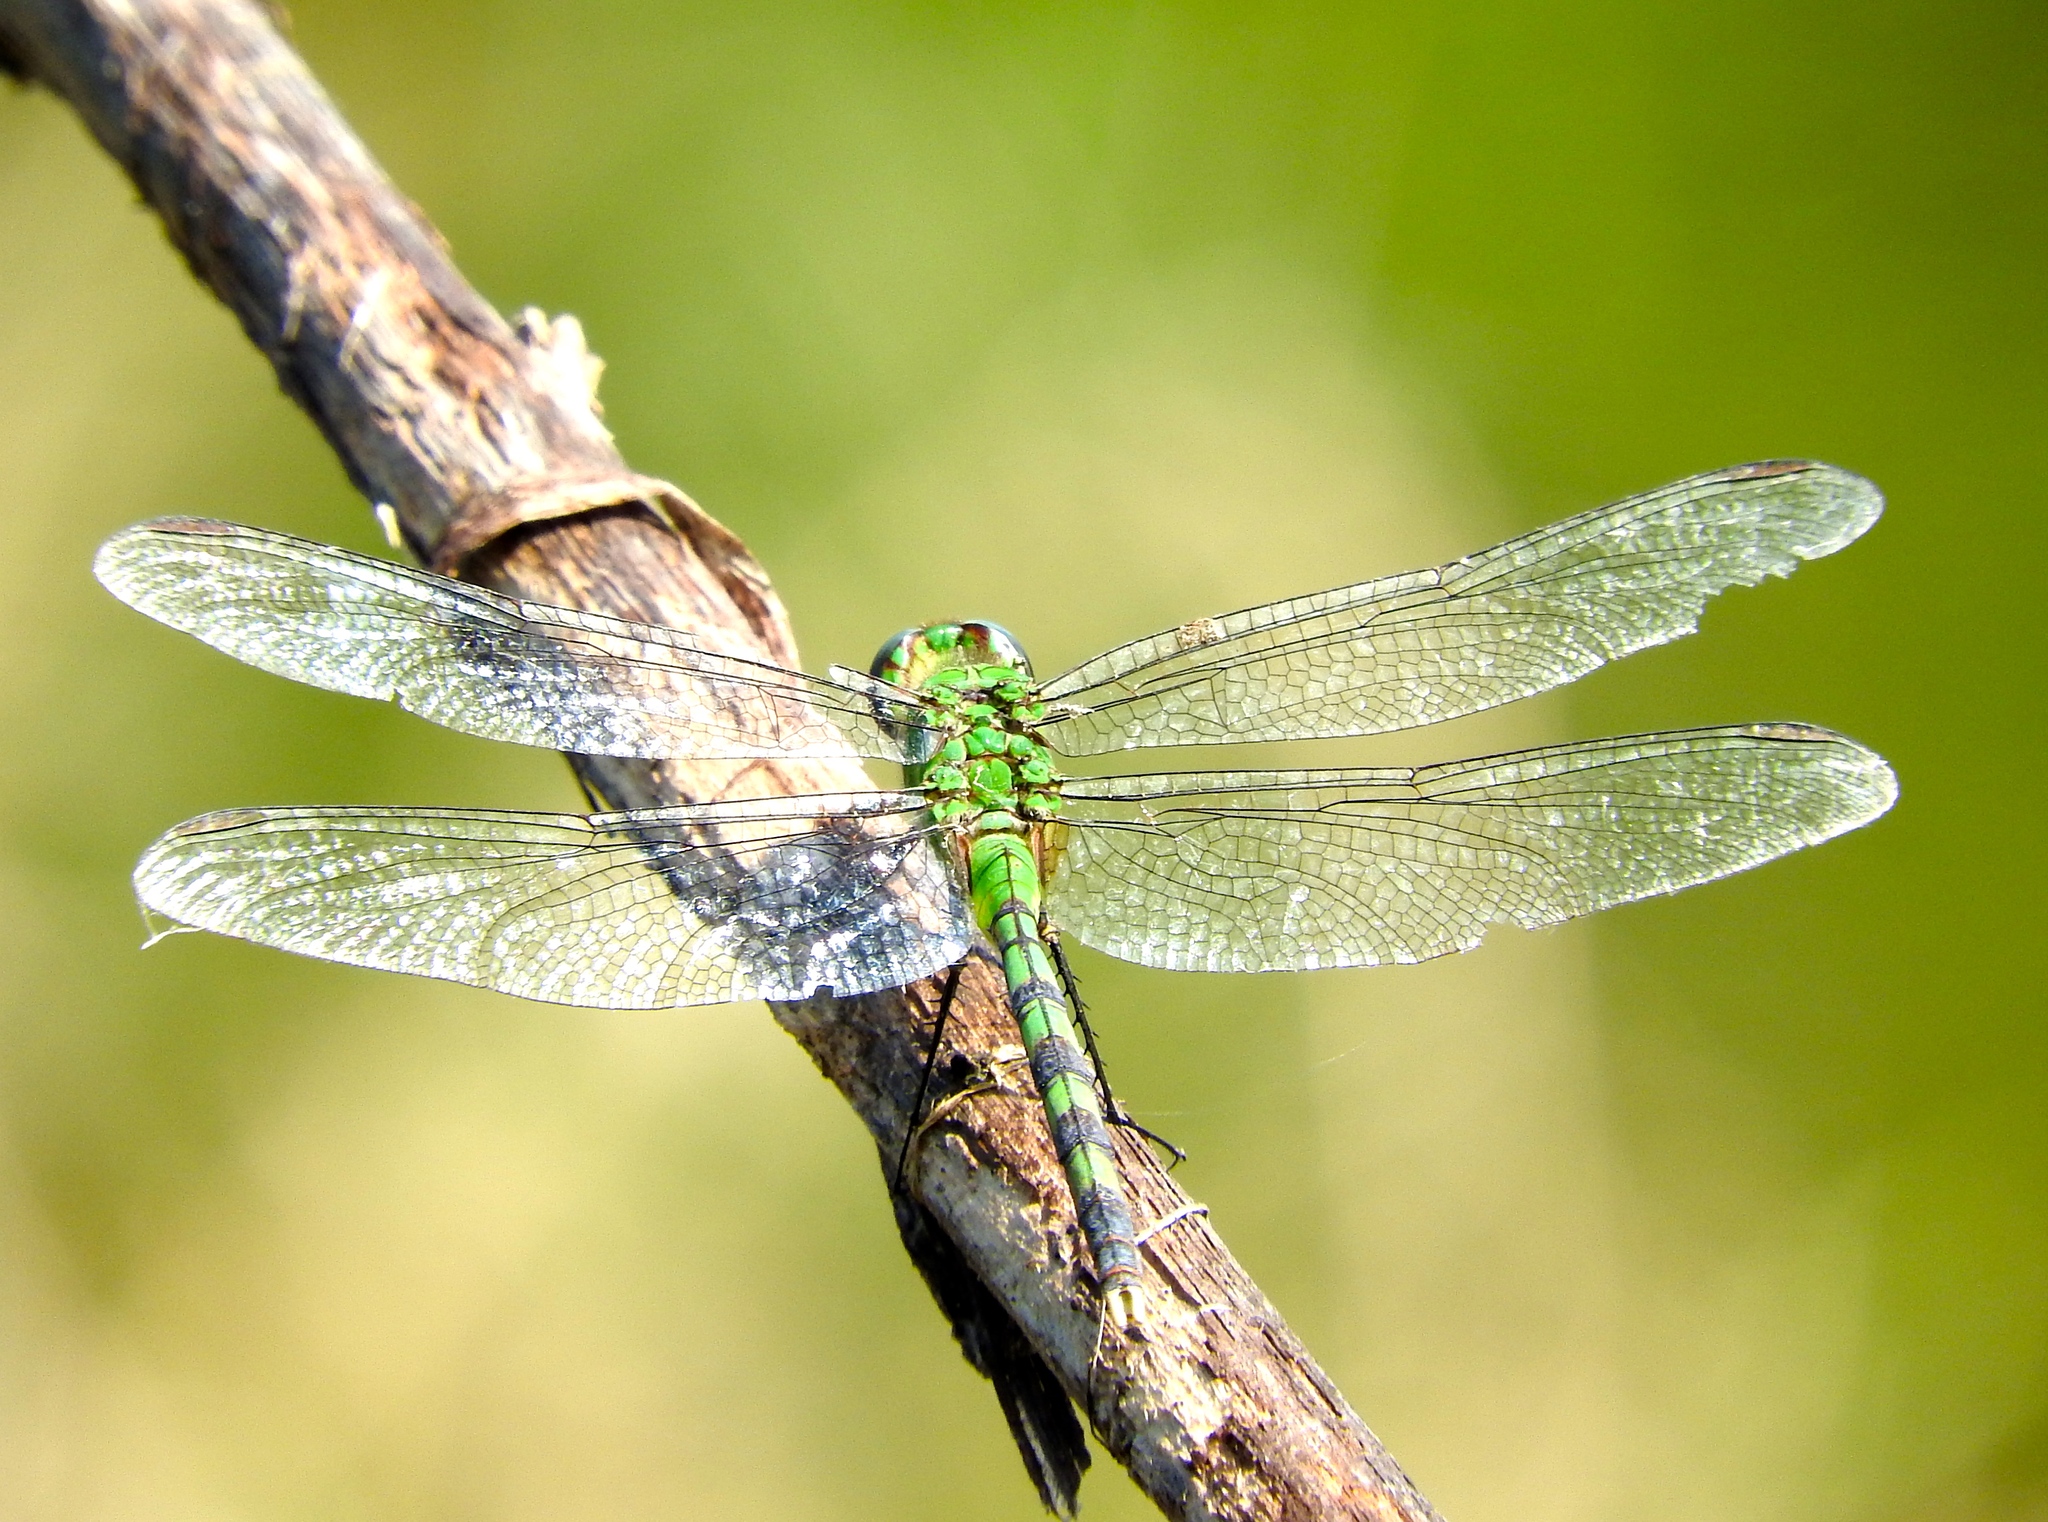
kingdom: Animalia
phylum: Arthropoda
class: Insecta
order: Odonata
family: Libellulidae
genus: Erythemis
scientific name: Erythemis vesiculosa
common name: Great pondhawk
